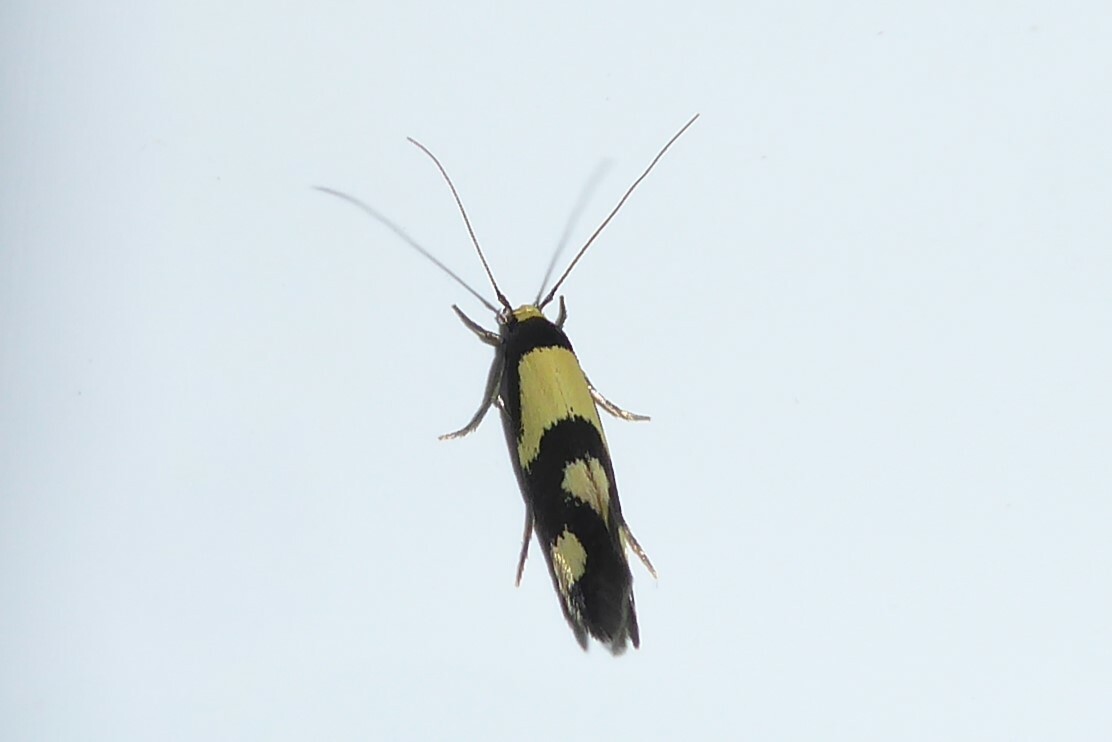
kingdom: Animalia
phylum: Arthropoda
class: Insecta
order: Lepidoptera
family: Tineidae
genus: Opogona
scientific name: Opogona comptella
